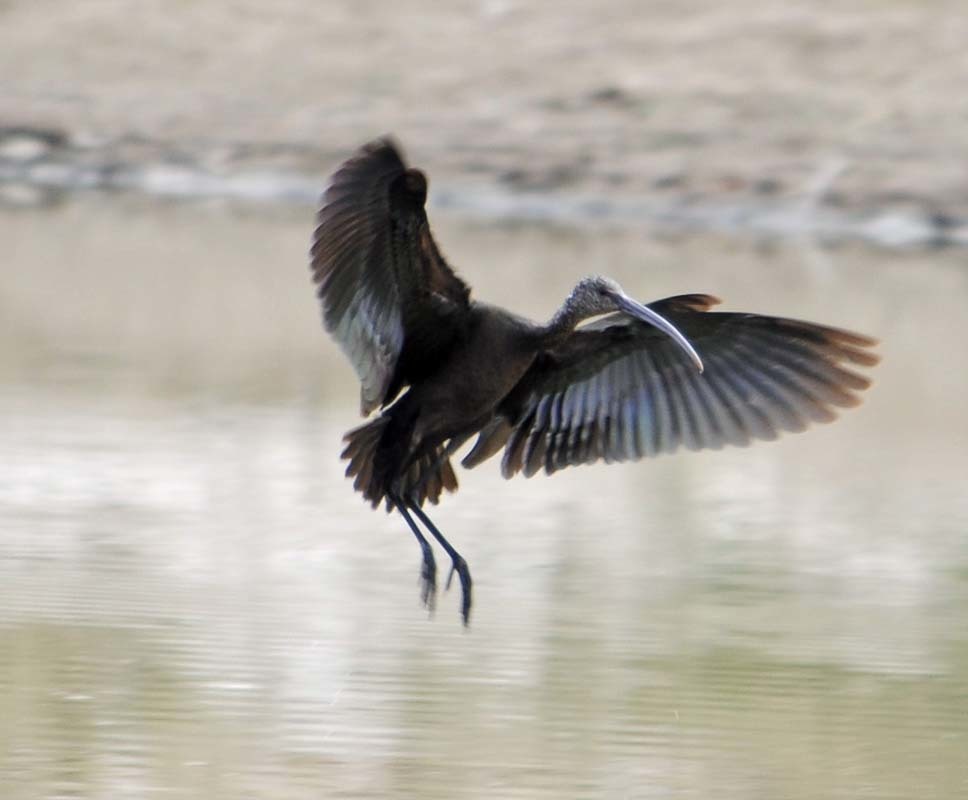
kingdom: Animalia
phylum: Chordata
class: Aves
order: Pelecaniformes
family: Threskiornithidae
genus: Plegadis
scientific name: Plegadis chihi
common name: White-faced ibis
